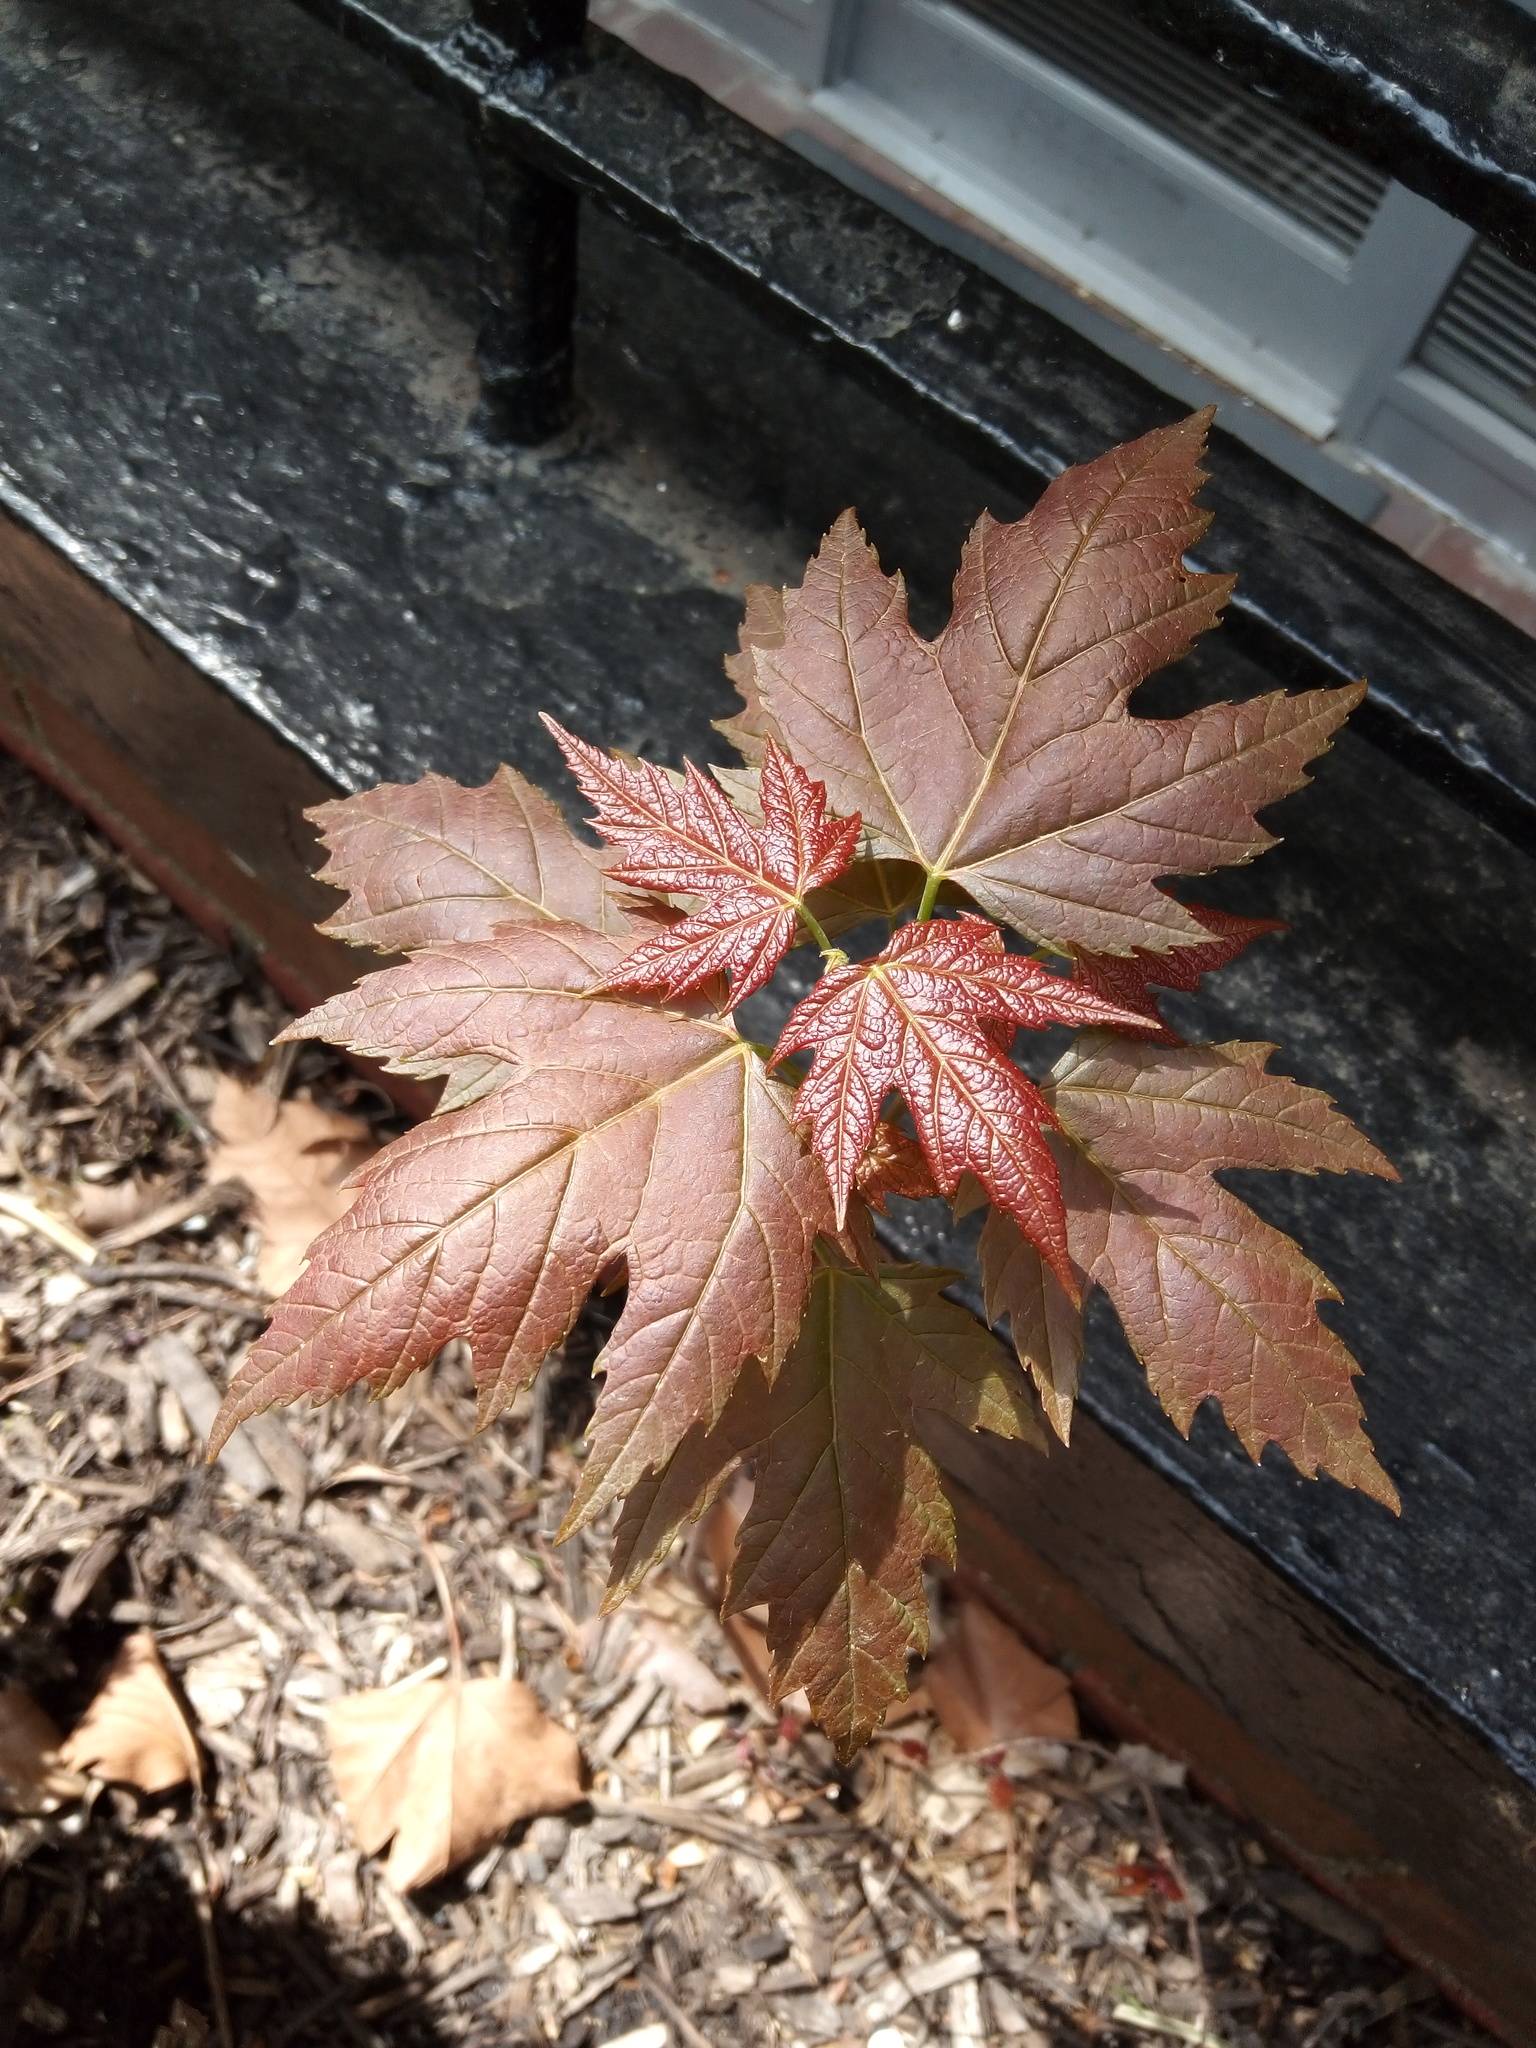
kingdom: Plantae
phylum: Tracheophyta
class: Magnoliopsida
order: Sapindales
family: Sapindaceae
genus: Acer
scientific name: Acer saccharinum
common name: Silver maple
